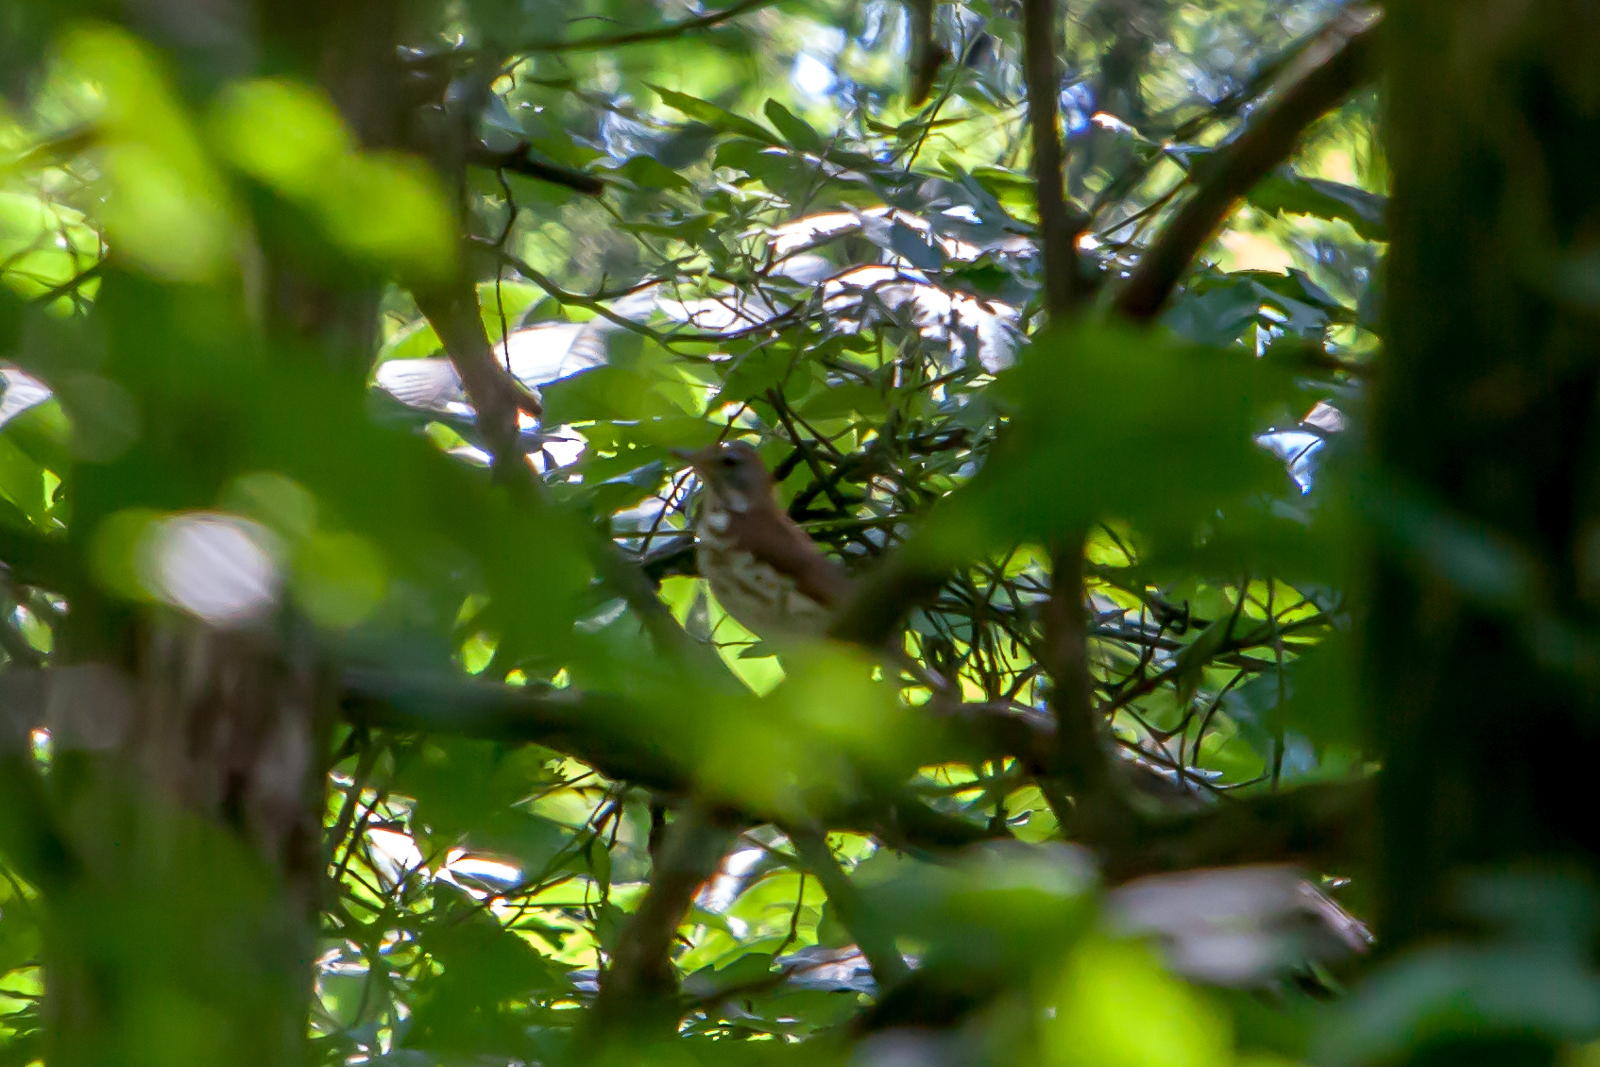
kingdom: Animalia
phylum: Chordata
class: Aves
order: Passeriformes
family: Turdidae
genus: Hylocichla
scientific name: Hylocichla mustelina
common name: Wood thrush
